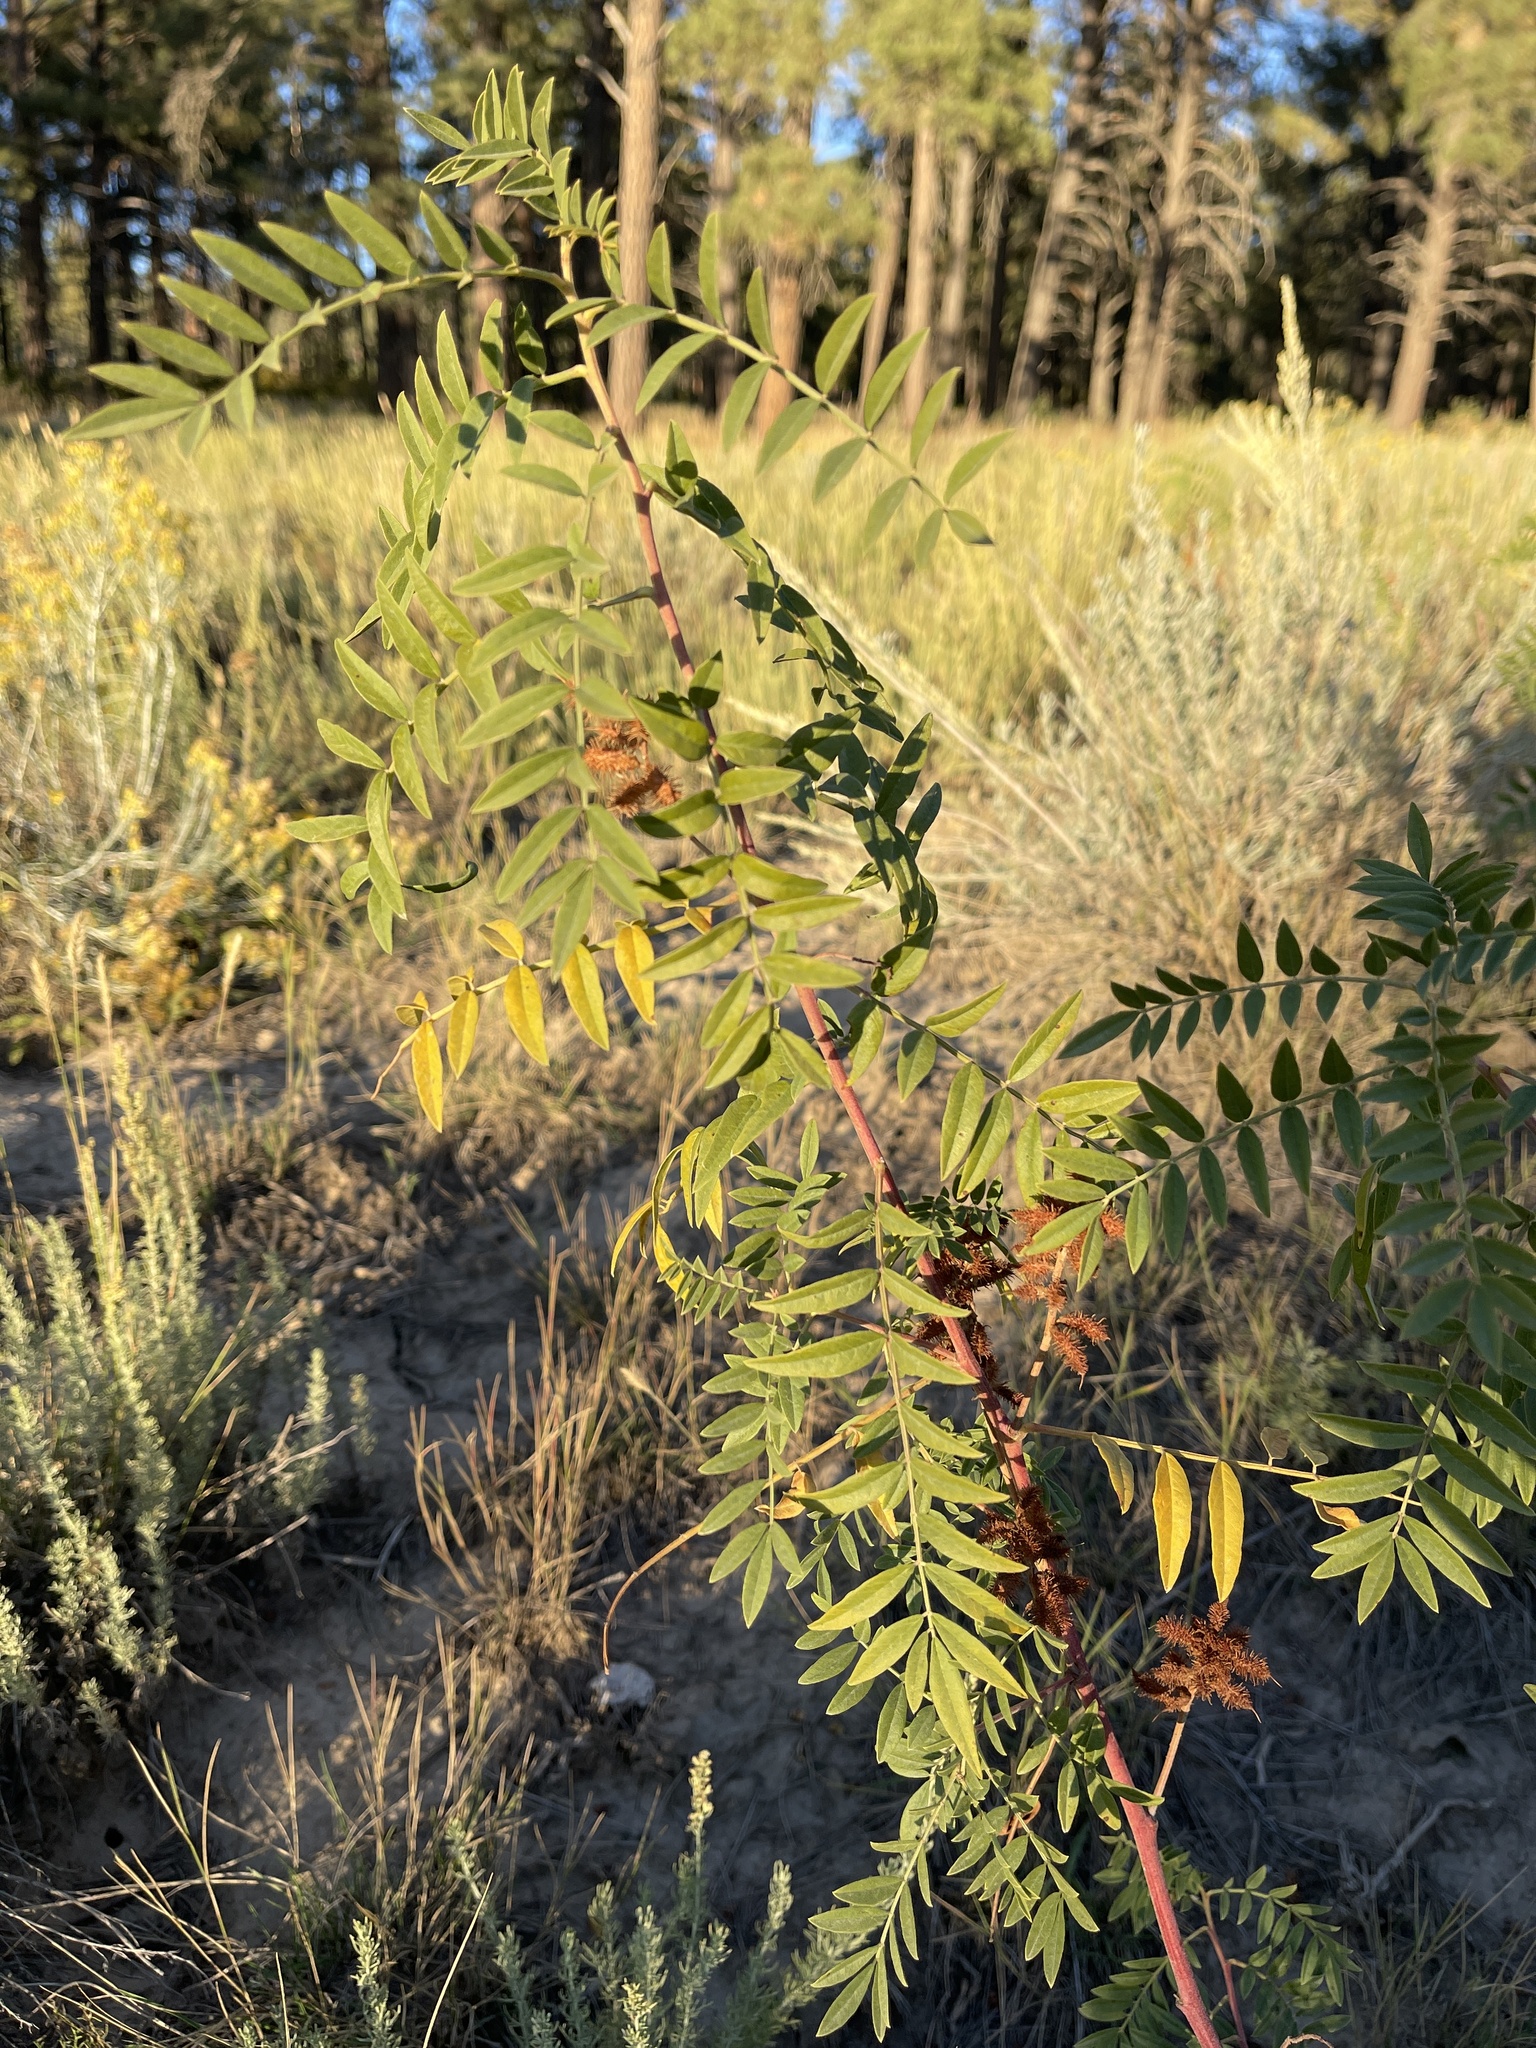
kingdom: Plantae
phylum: Tracheophyta
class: Magnoliopsida
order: Fabales
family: Fabaceae
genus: Glycyrrhiza
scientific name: Glycyrrhiza lepidota
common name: American liquorice
